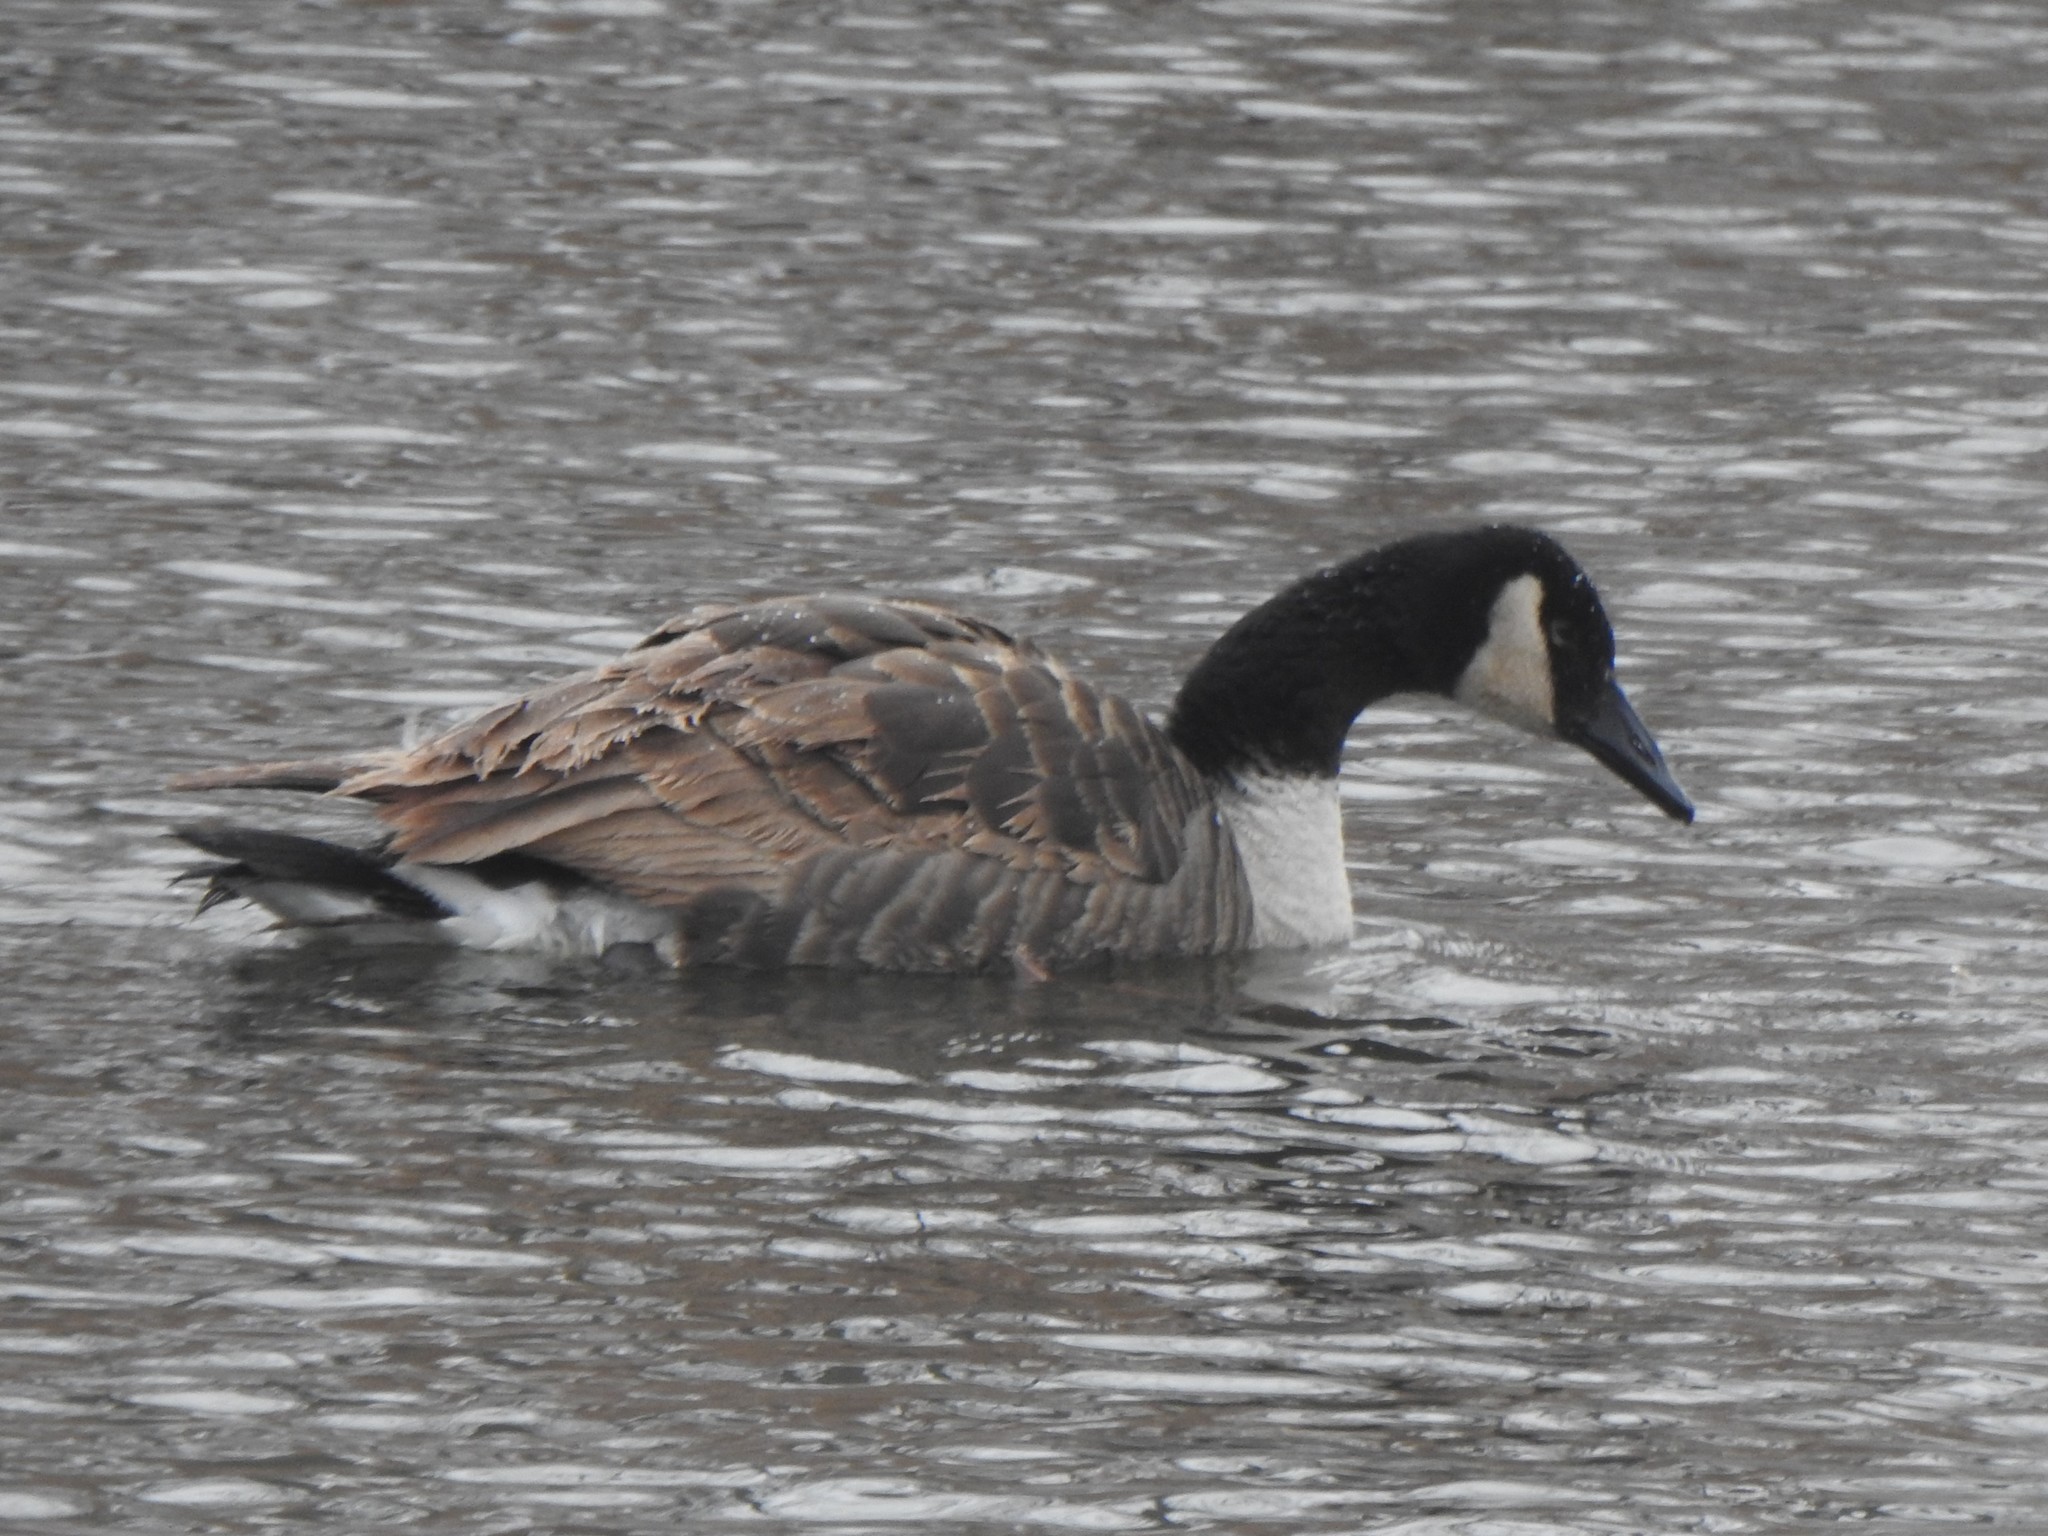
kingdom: Animalia
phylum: Chordata
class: Aves
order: Anseriformes
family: Anatidae
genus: Branta
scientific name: Branta canadensis
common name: Canada goose
